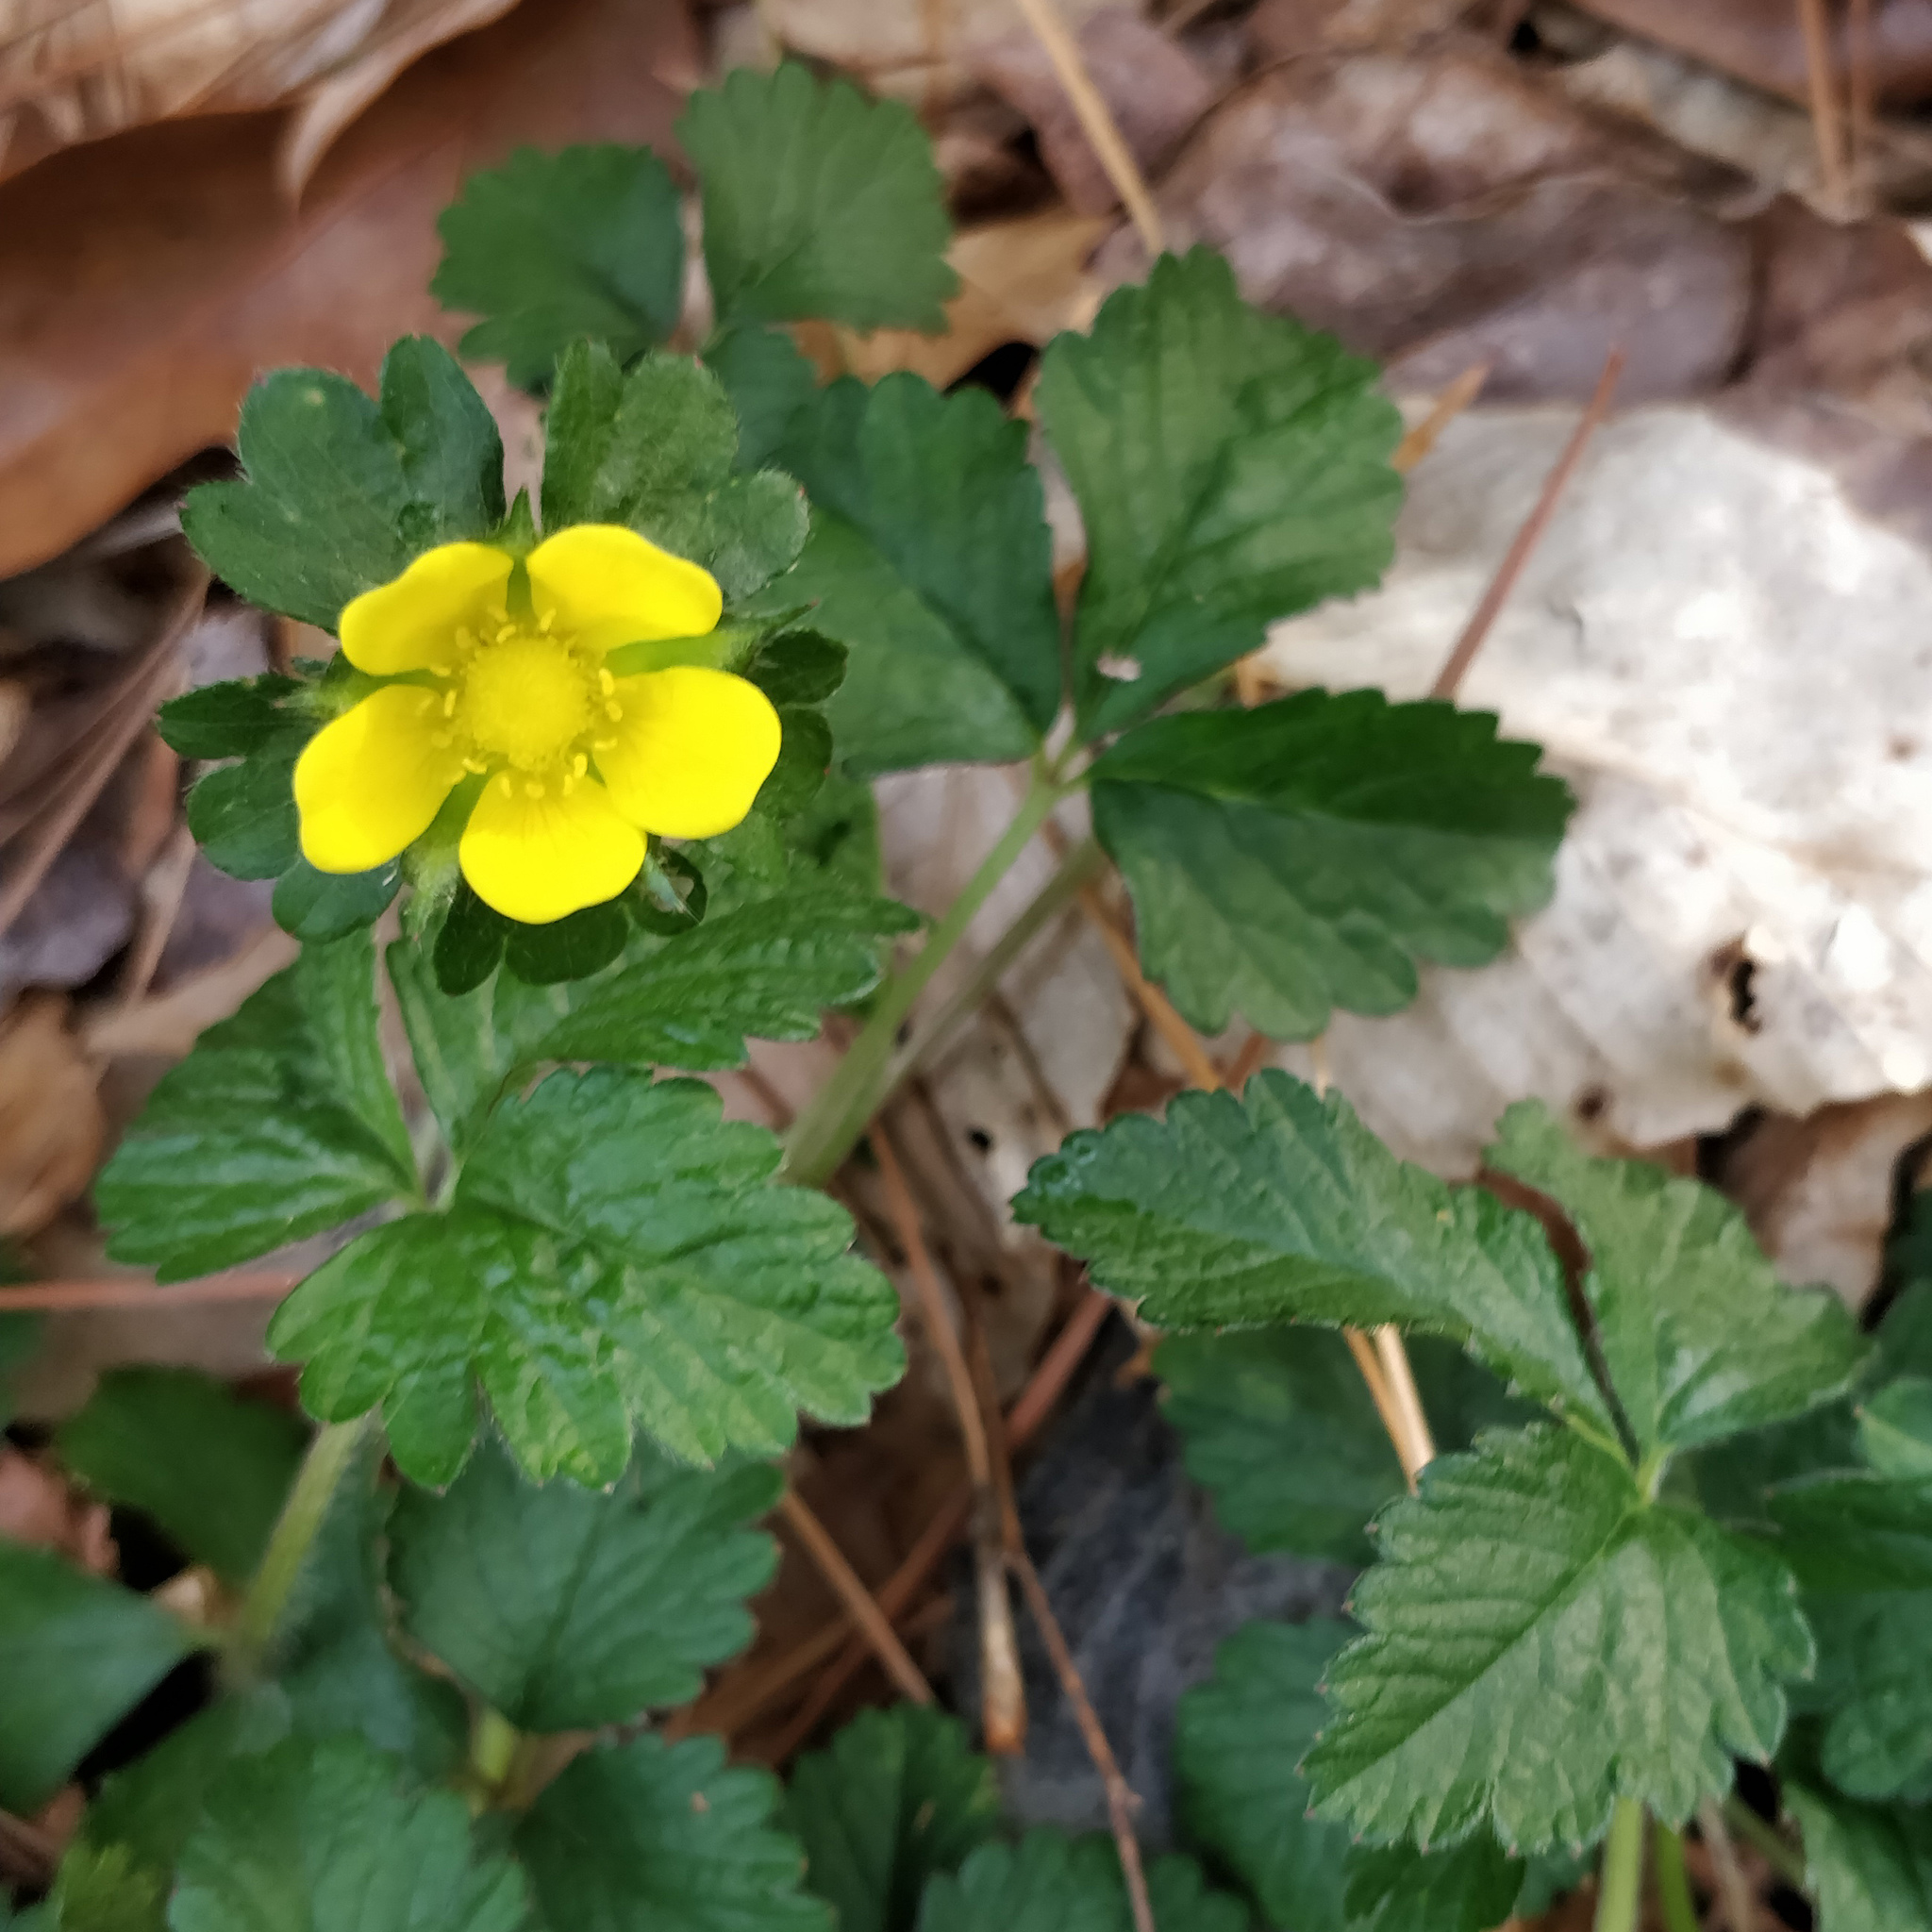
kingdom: Plantae
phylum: Tracheophyta
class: Magnoliopsida
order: Rosales
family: Rosaceae
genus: Potentilla
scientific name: Potentilla indica
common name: Yellow-flowered strawberry
